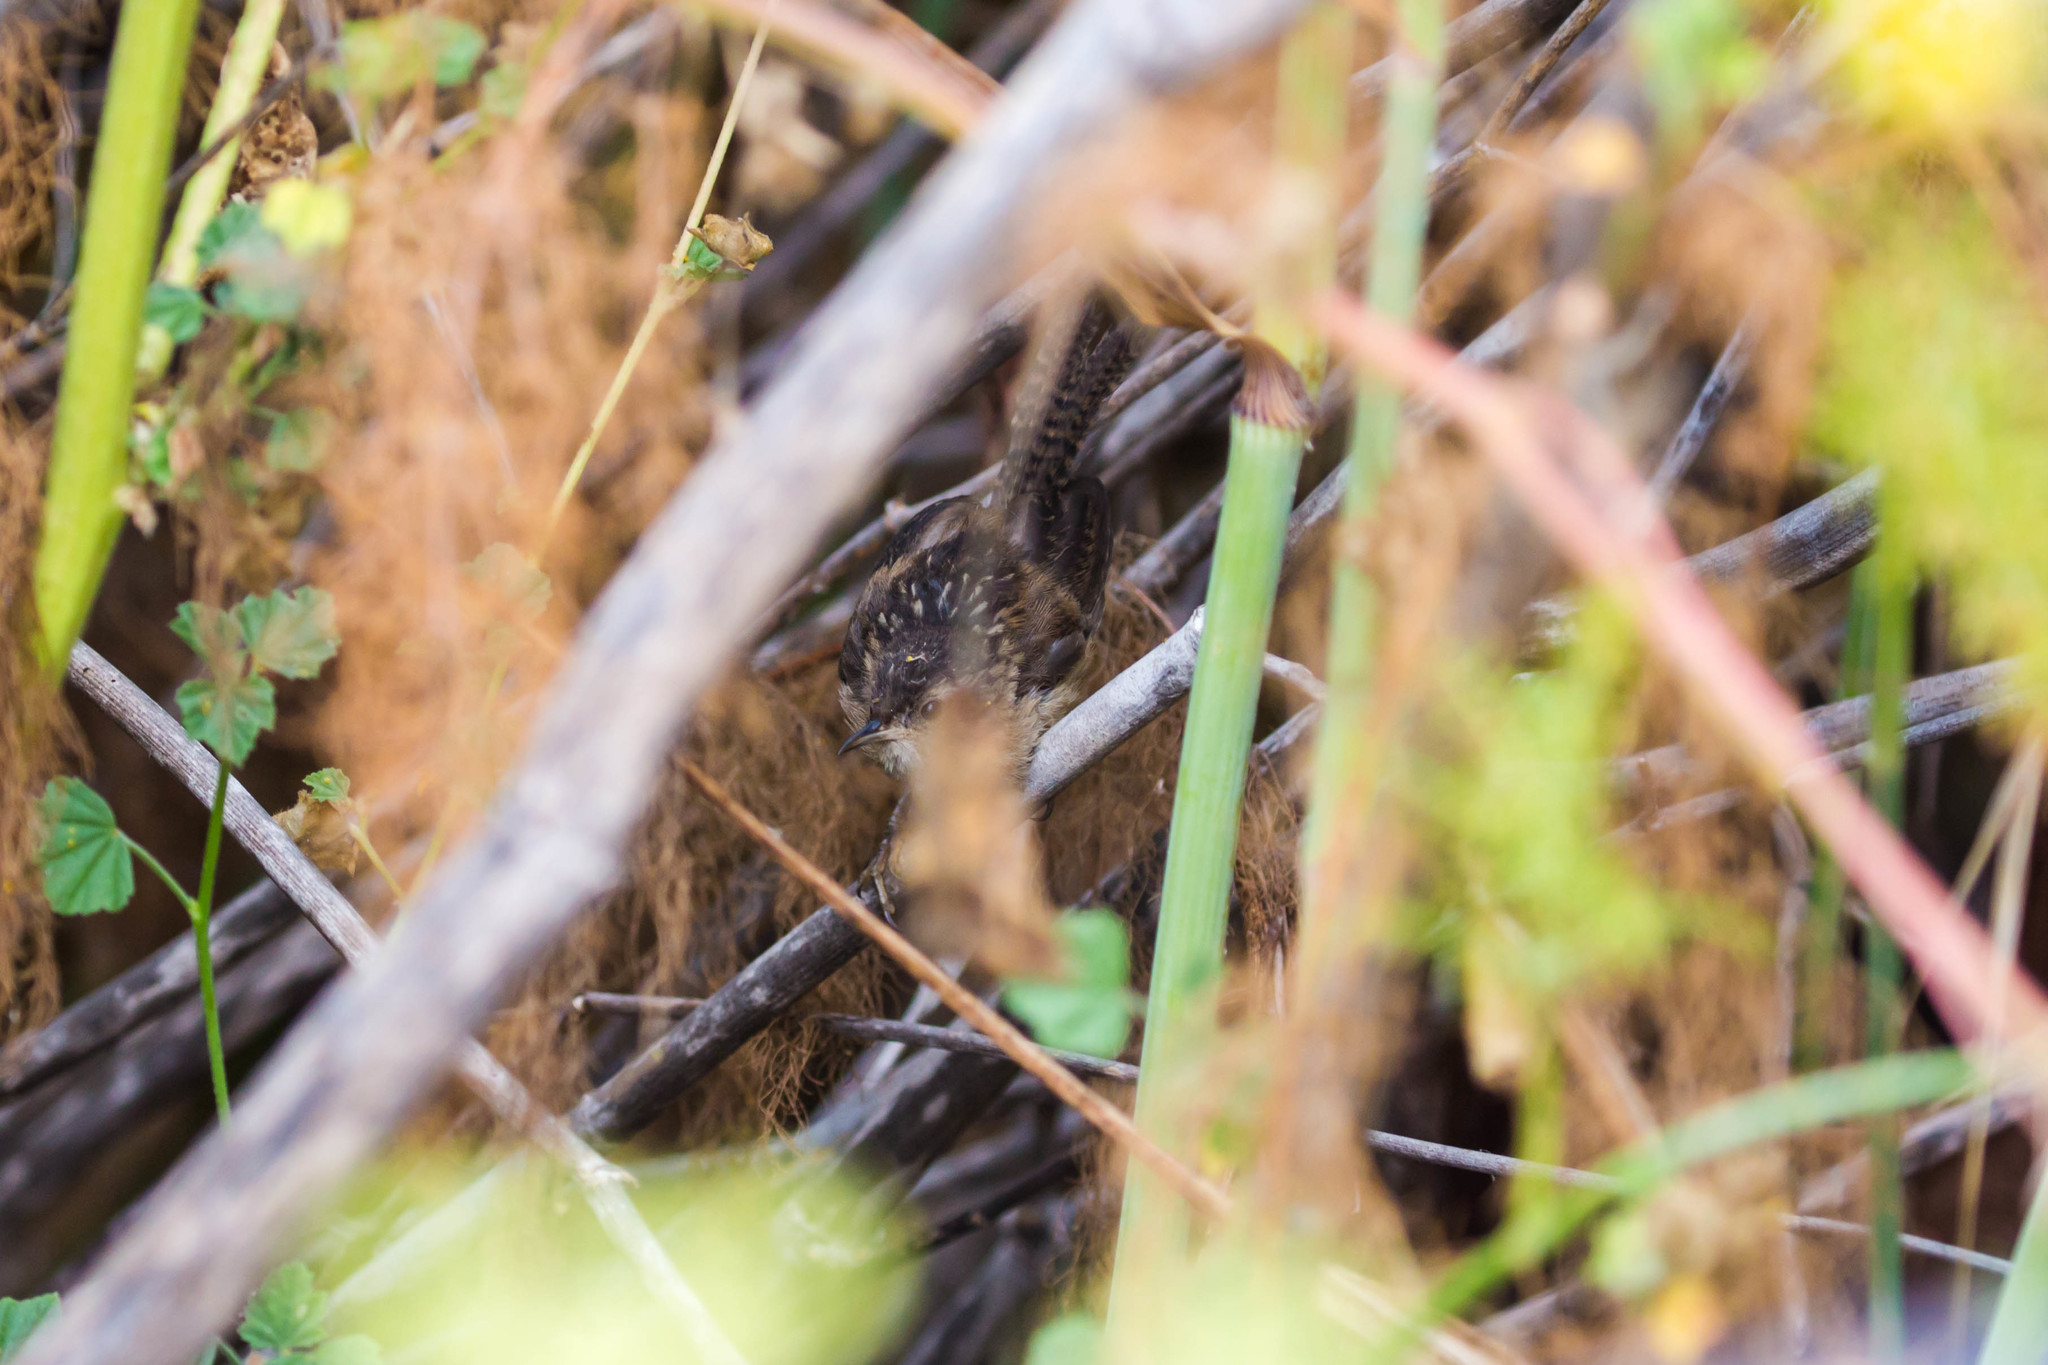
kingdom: Animalia
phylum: Chordata
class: Aves
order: Passeriformes
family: Troglodytidae
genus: Cistothorus
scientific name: Cistothorus palustris
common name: Marsh wren
